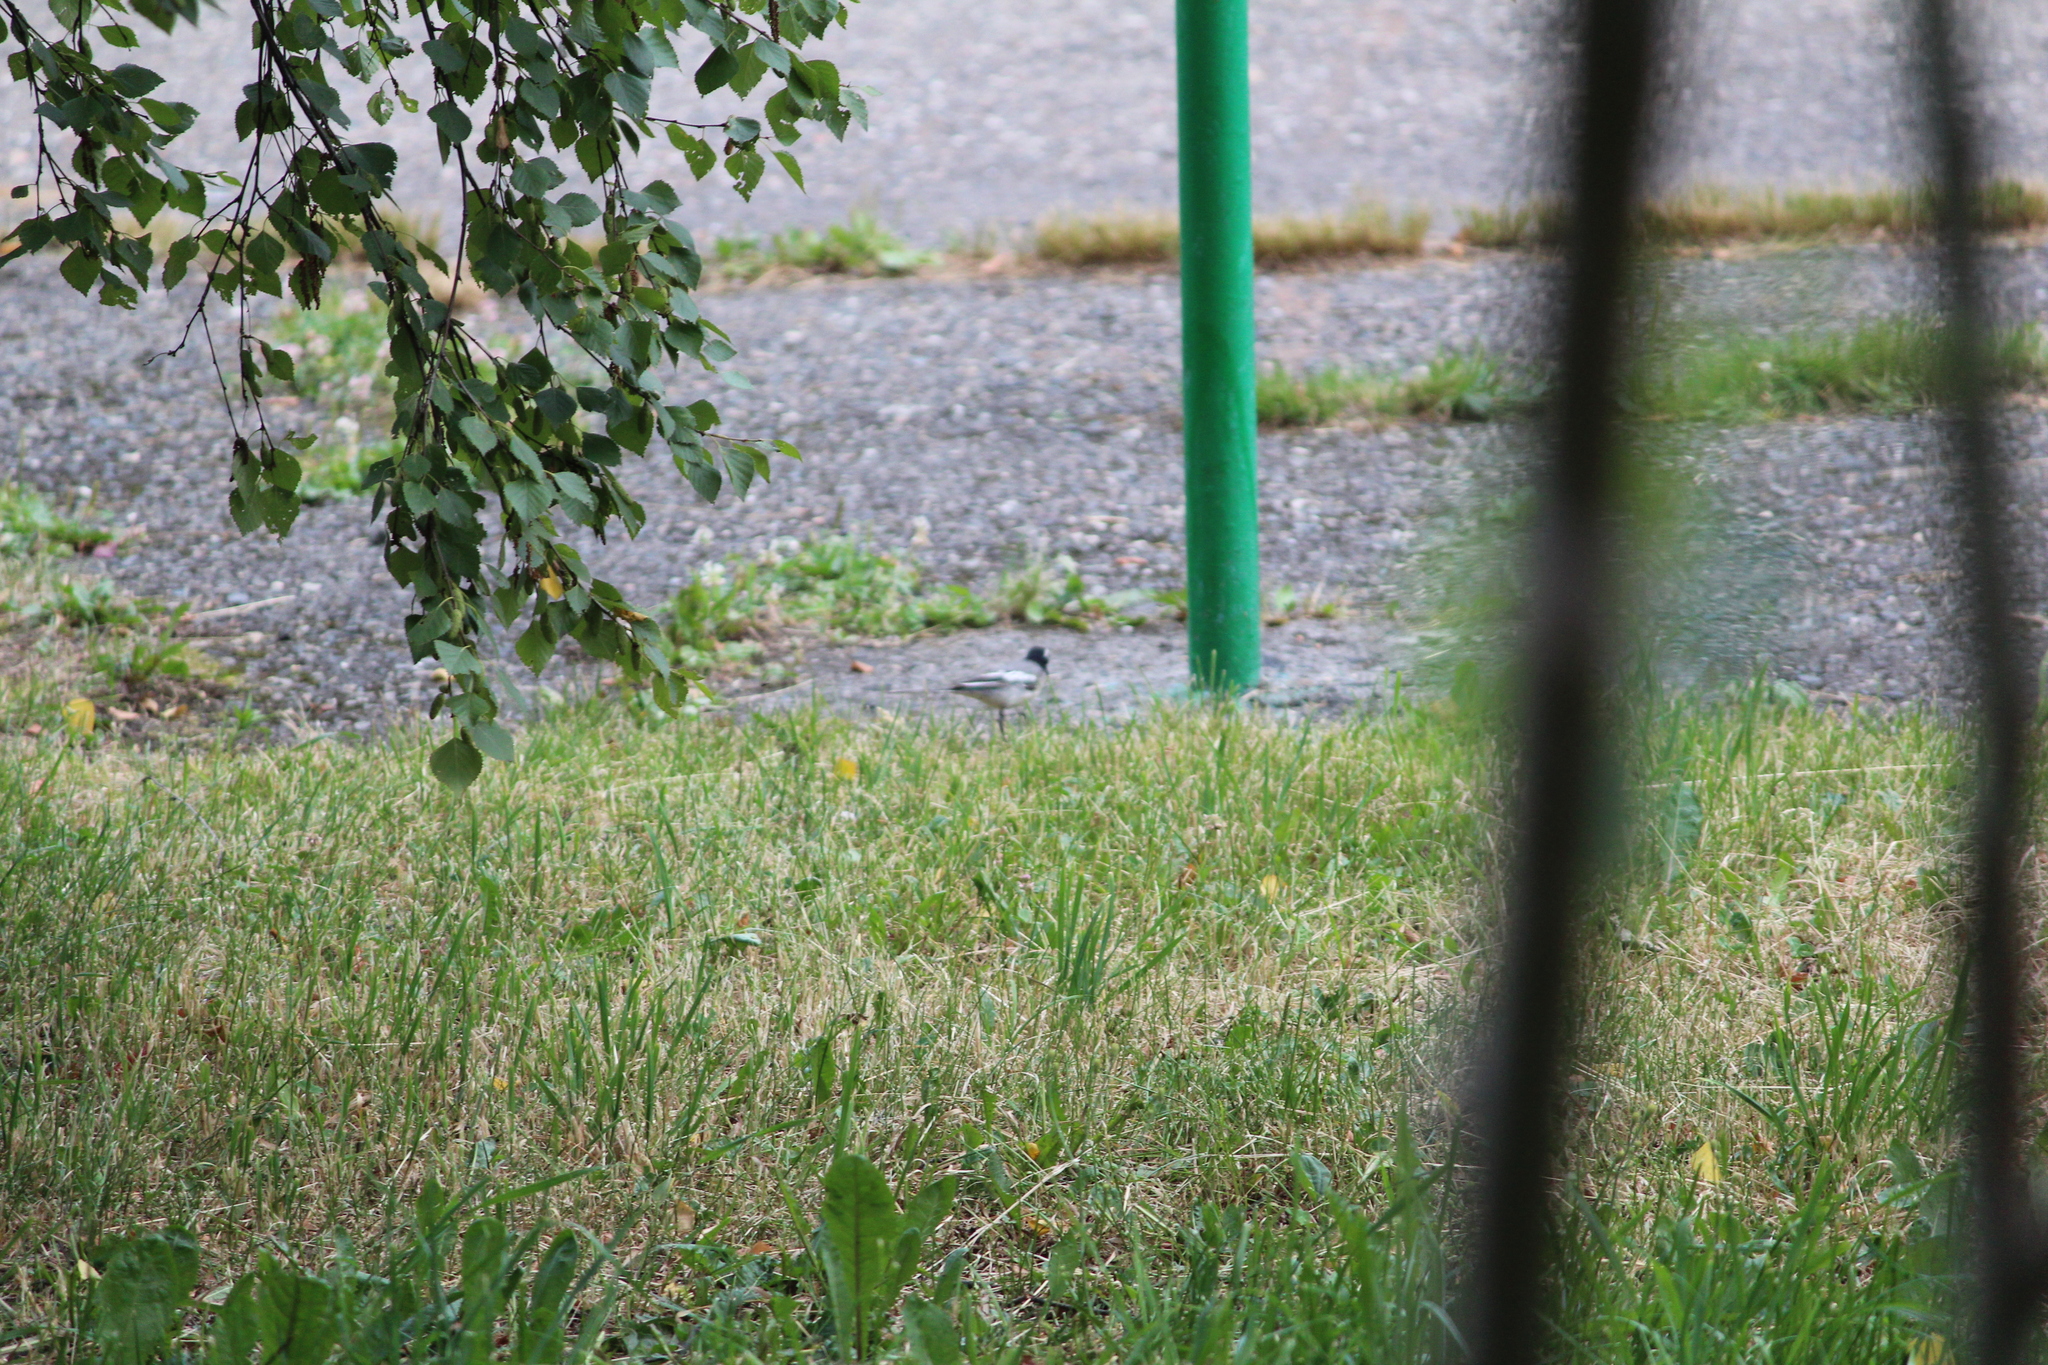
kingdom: Animalia
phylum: Chordata
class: Aves
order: Passeriformes
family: Motacillidae
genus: Motacilla
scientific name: Motacilla alba
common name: White wagtail
